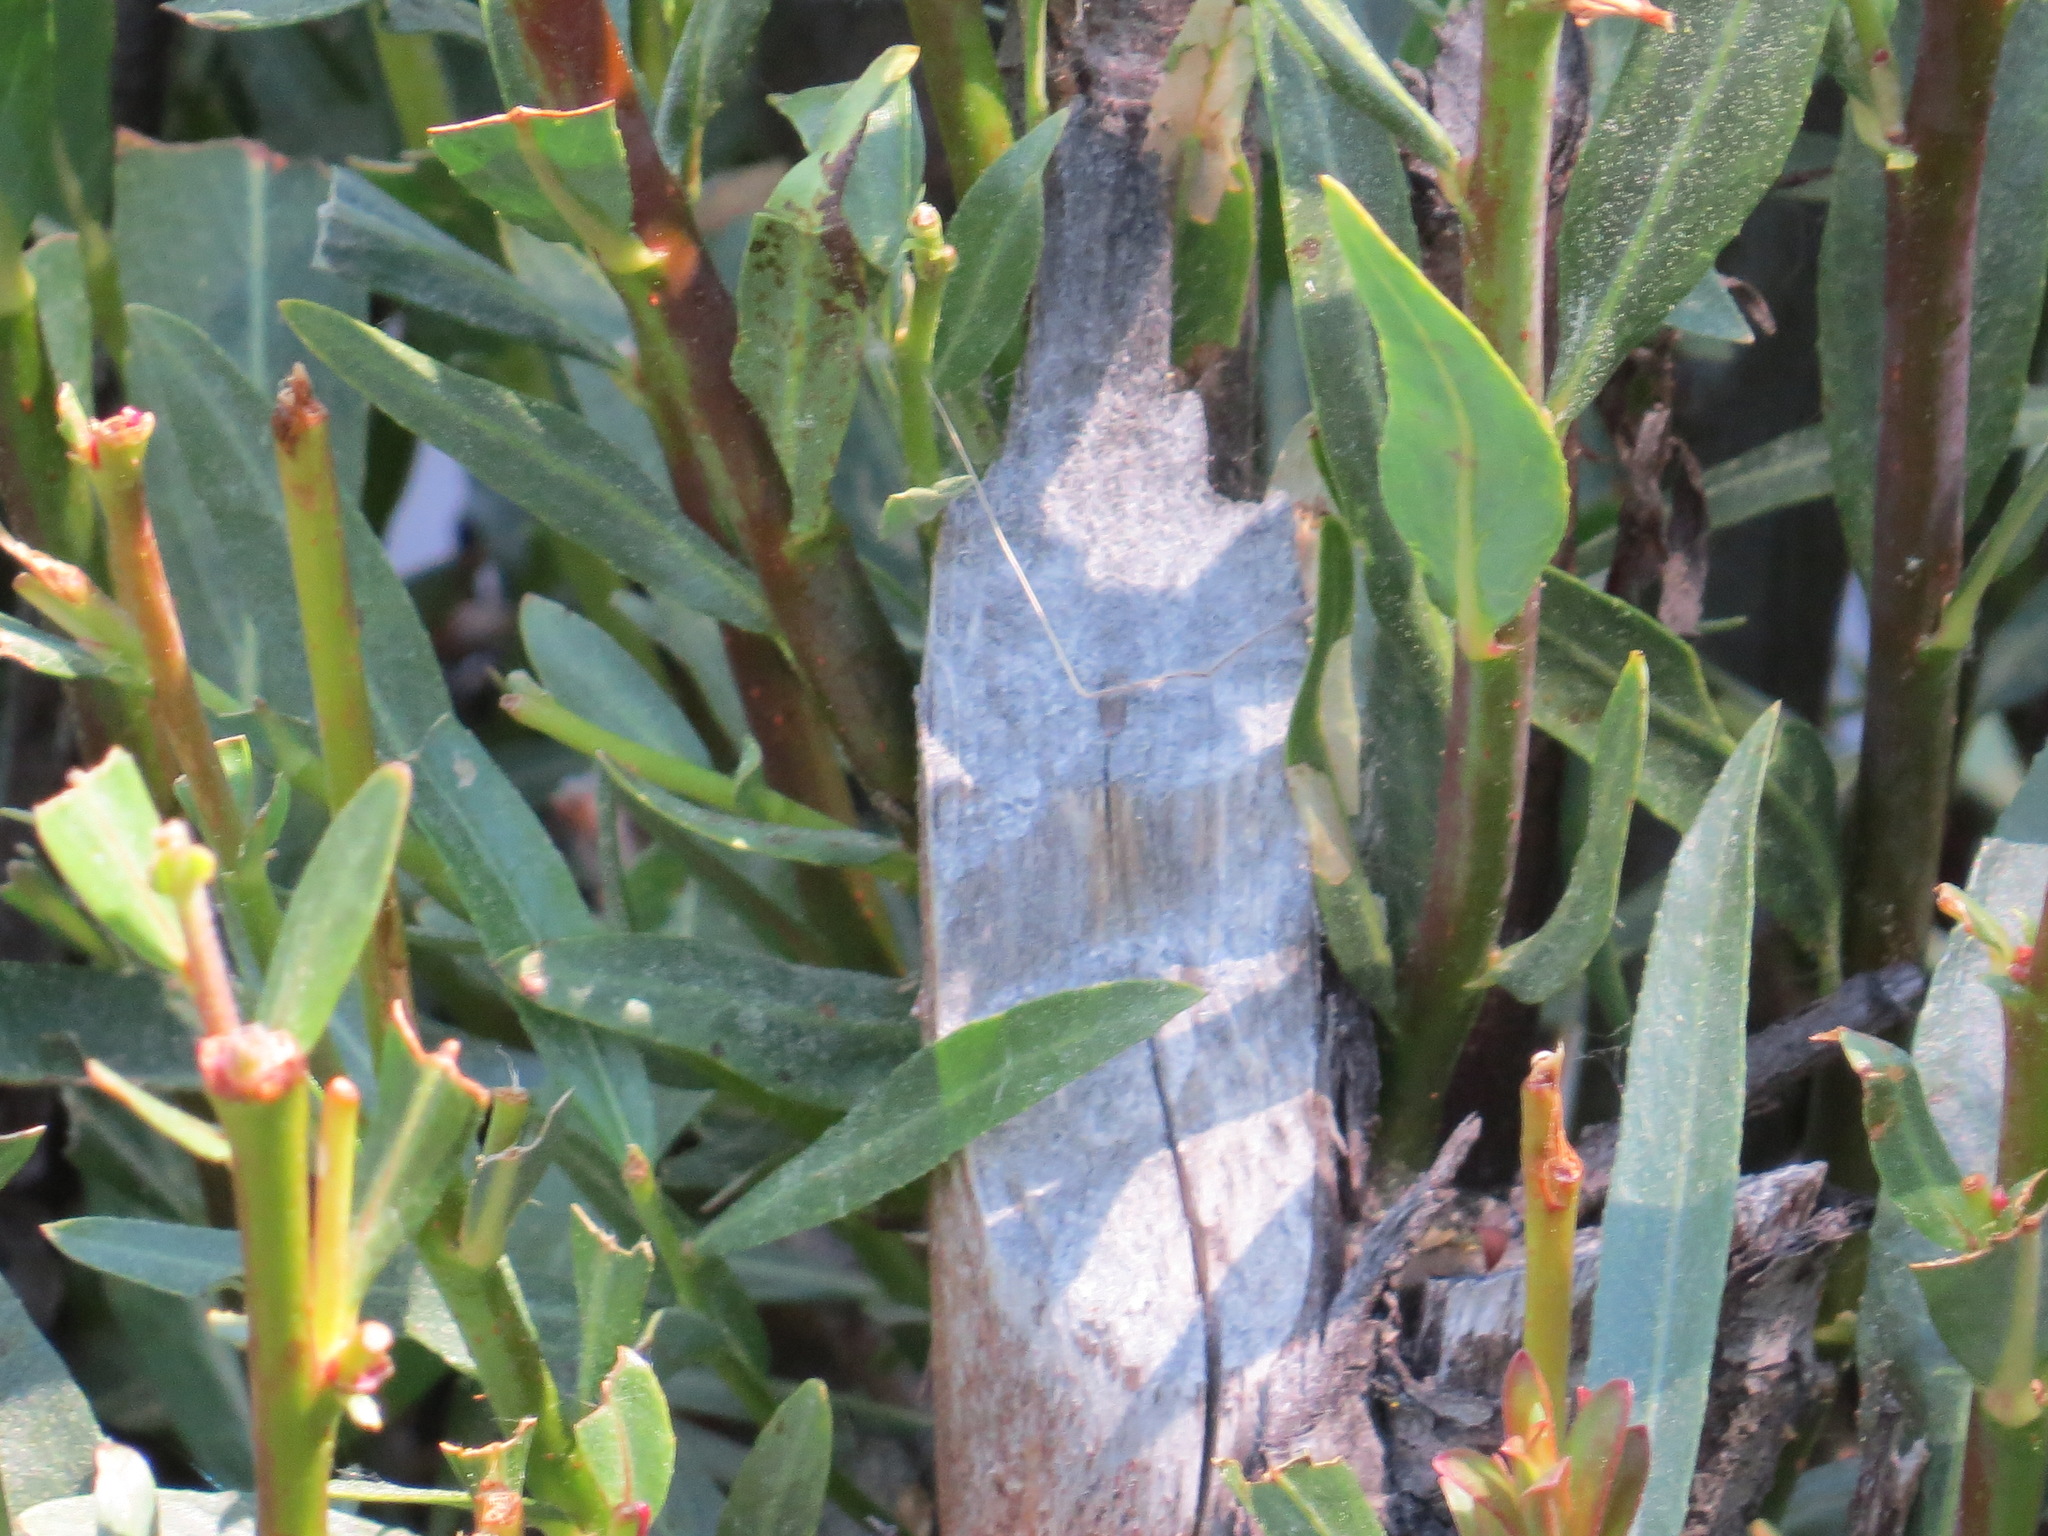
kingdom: Animalia
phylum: Chordata
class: Mammalia
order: Rodentia
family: Castoridae
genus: Castor
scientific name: Castor canadensis
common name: American beaver
